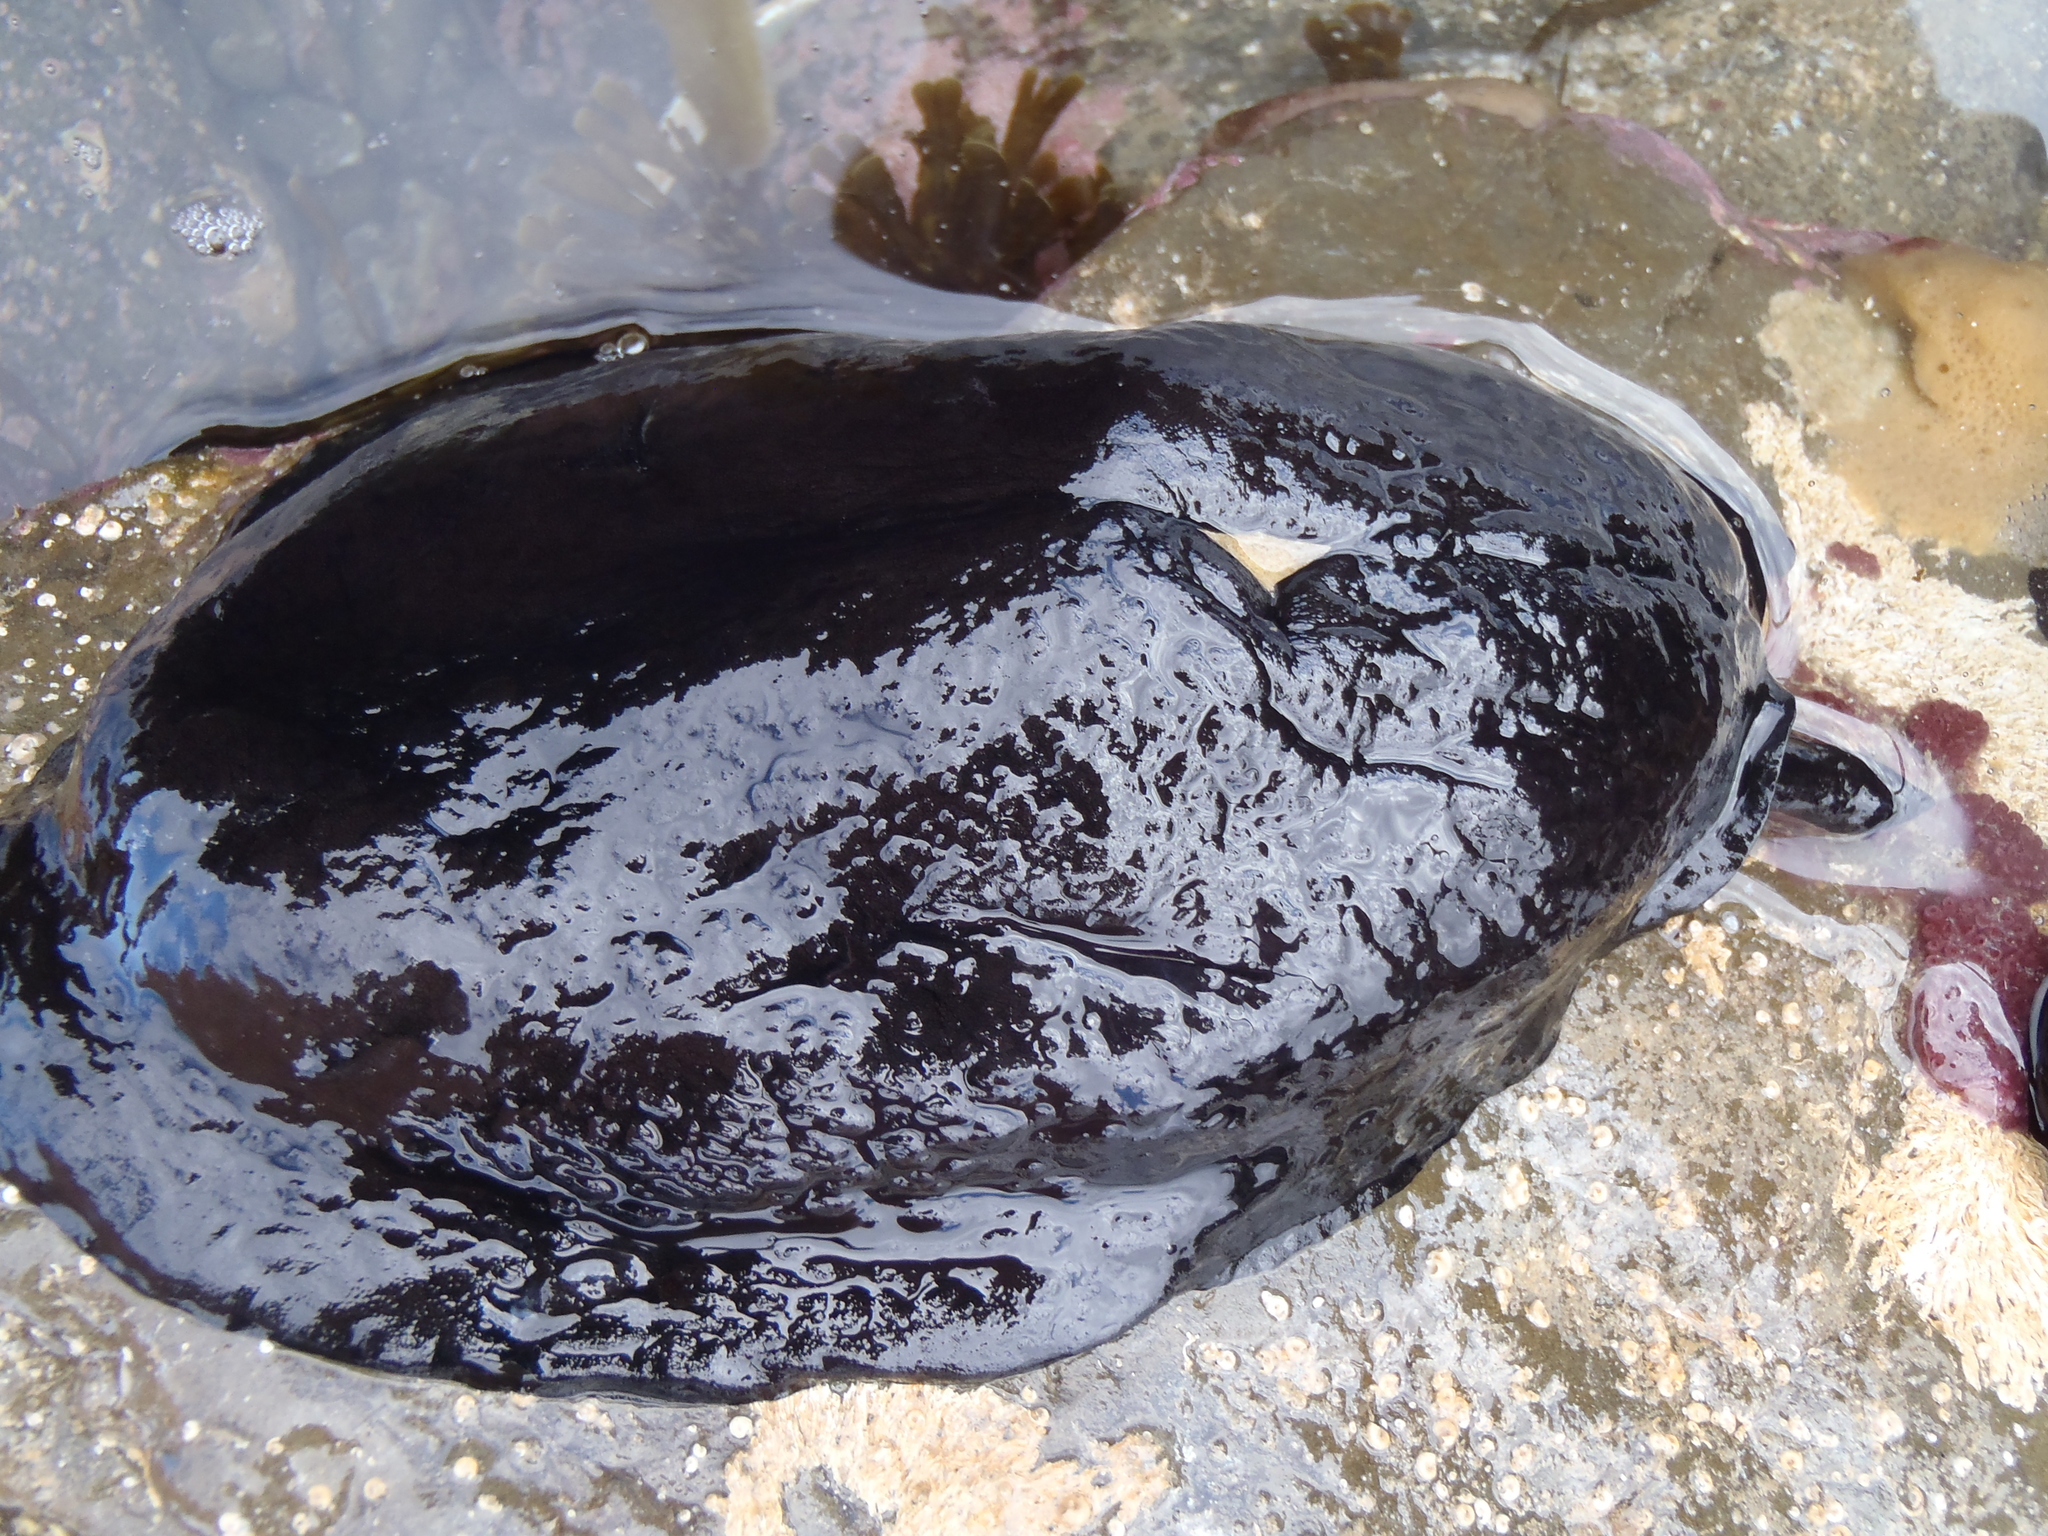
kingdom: Animalia
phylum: Mollusca
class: Gastropoda
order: Lepetellida
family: Fissurellidae
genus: Scutus
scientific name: Scutus breviculus
